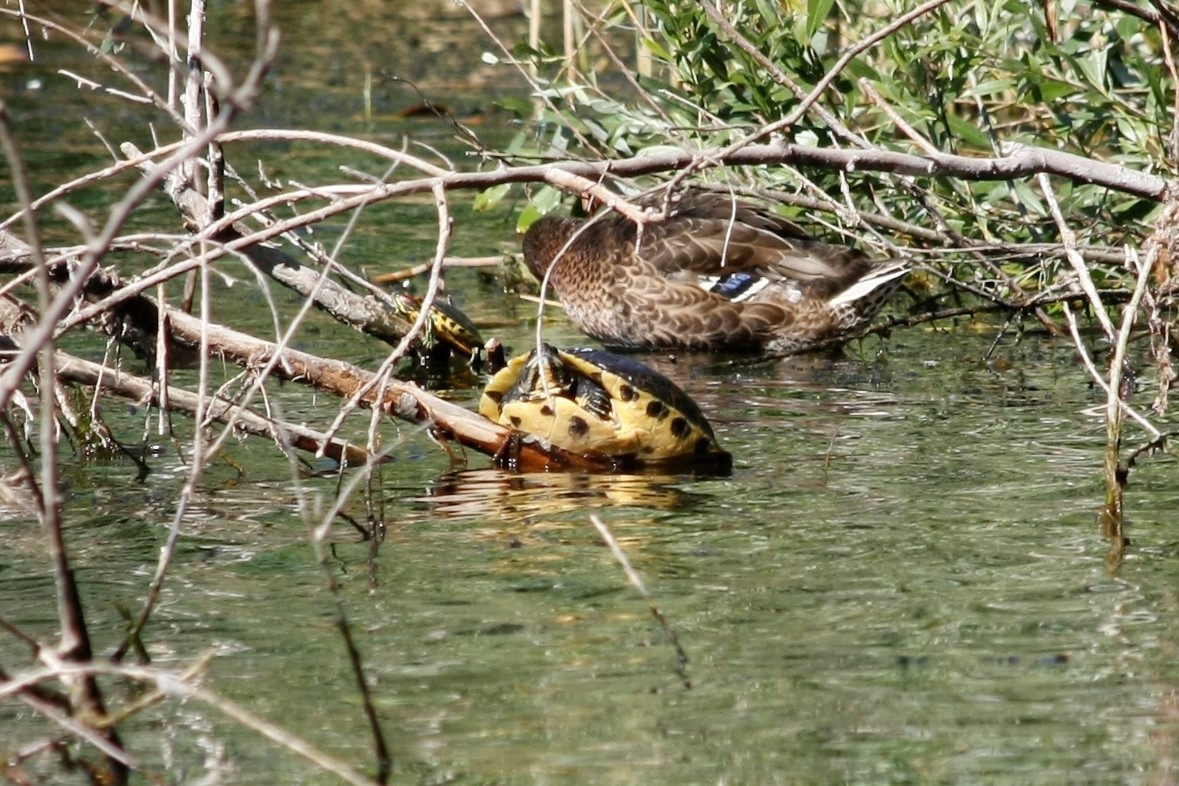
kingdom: Animalia
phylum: Chordata
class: Testudines
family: Emydidae
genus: Trachemys
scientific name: Trachemys scripta
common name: Slider
